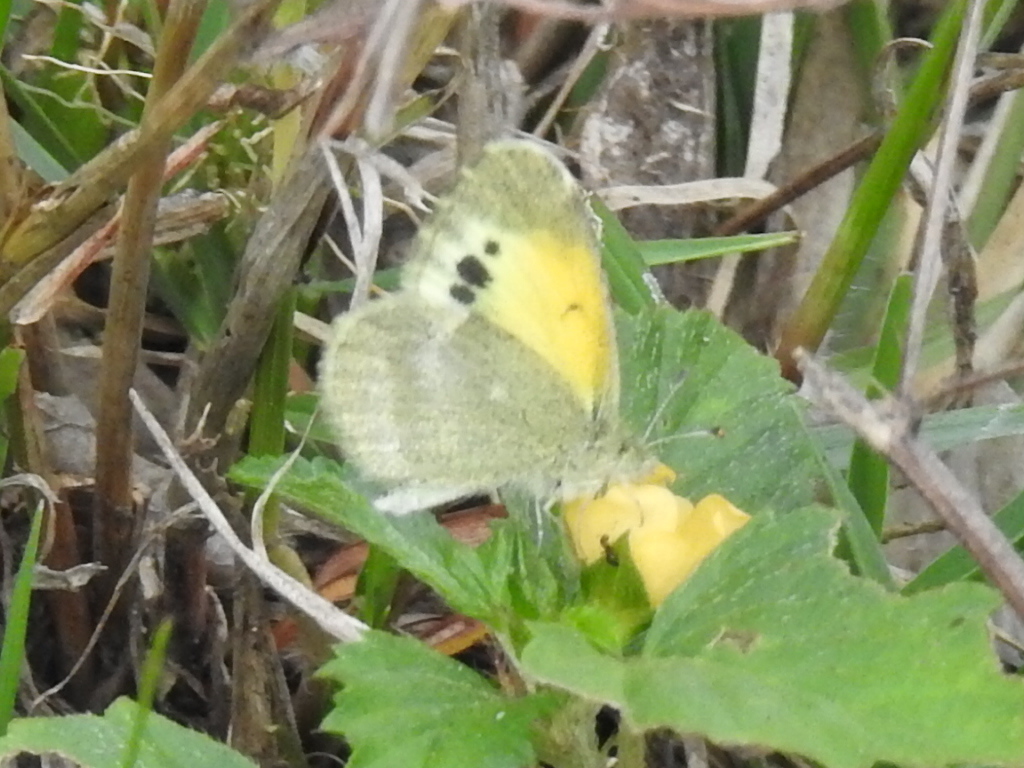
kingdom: Animalia
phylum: Arthropoda
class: Insecta
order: Lepidoptera
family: Pieridae
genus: Nathalis
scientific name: Nathalis iole
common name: Dainty sulphur
